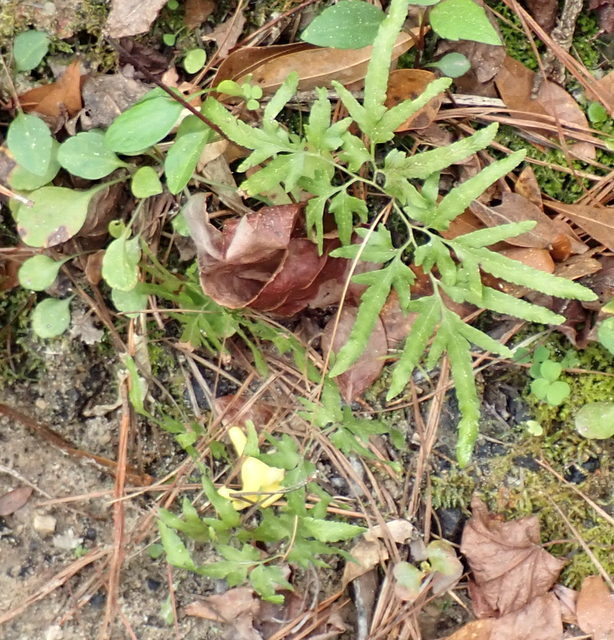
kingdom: Plantae
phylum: Tracheophyta
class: Polypodiopsida
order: Schizaeales
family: Lygodiaceae
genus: Lygodium
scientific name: Lygodium japonicum
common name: Japanese climbing fern
